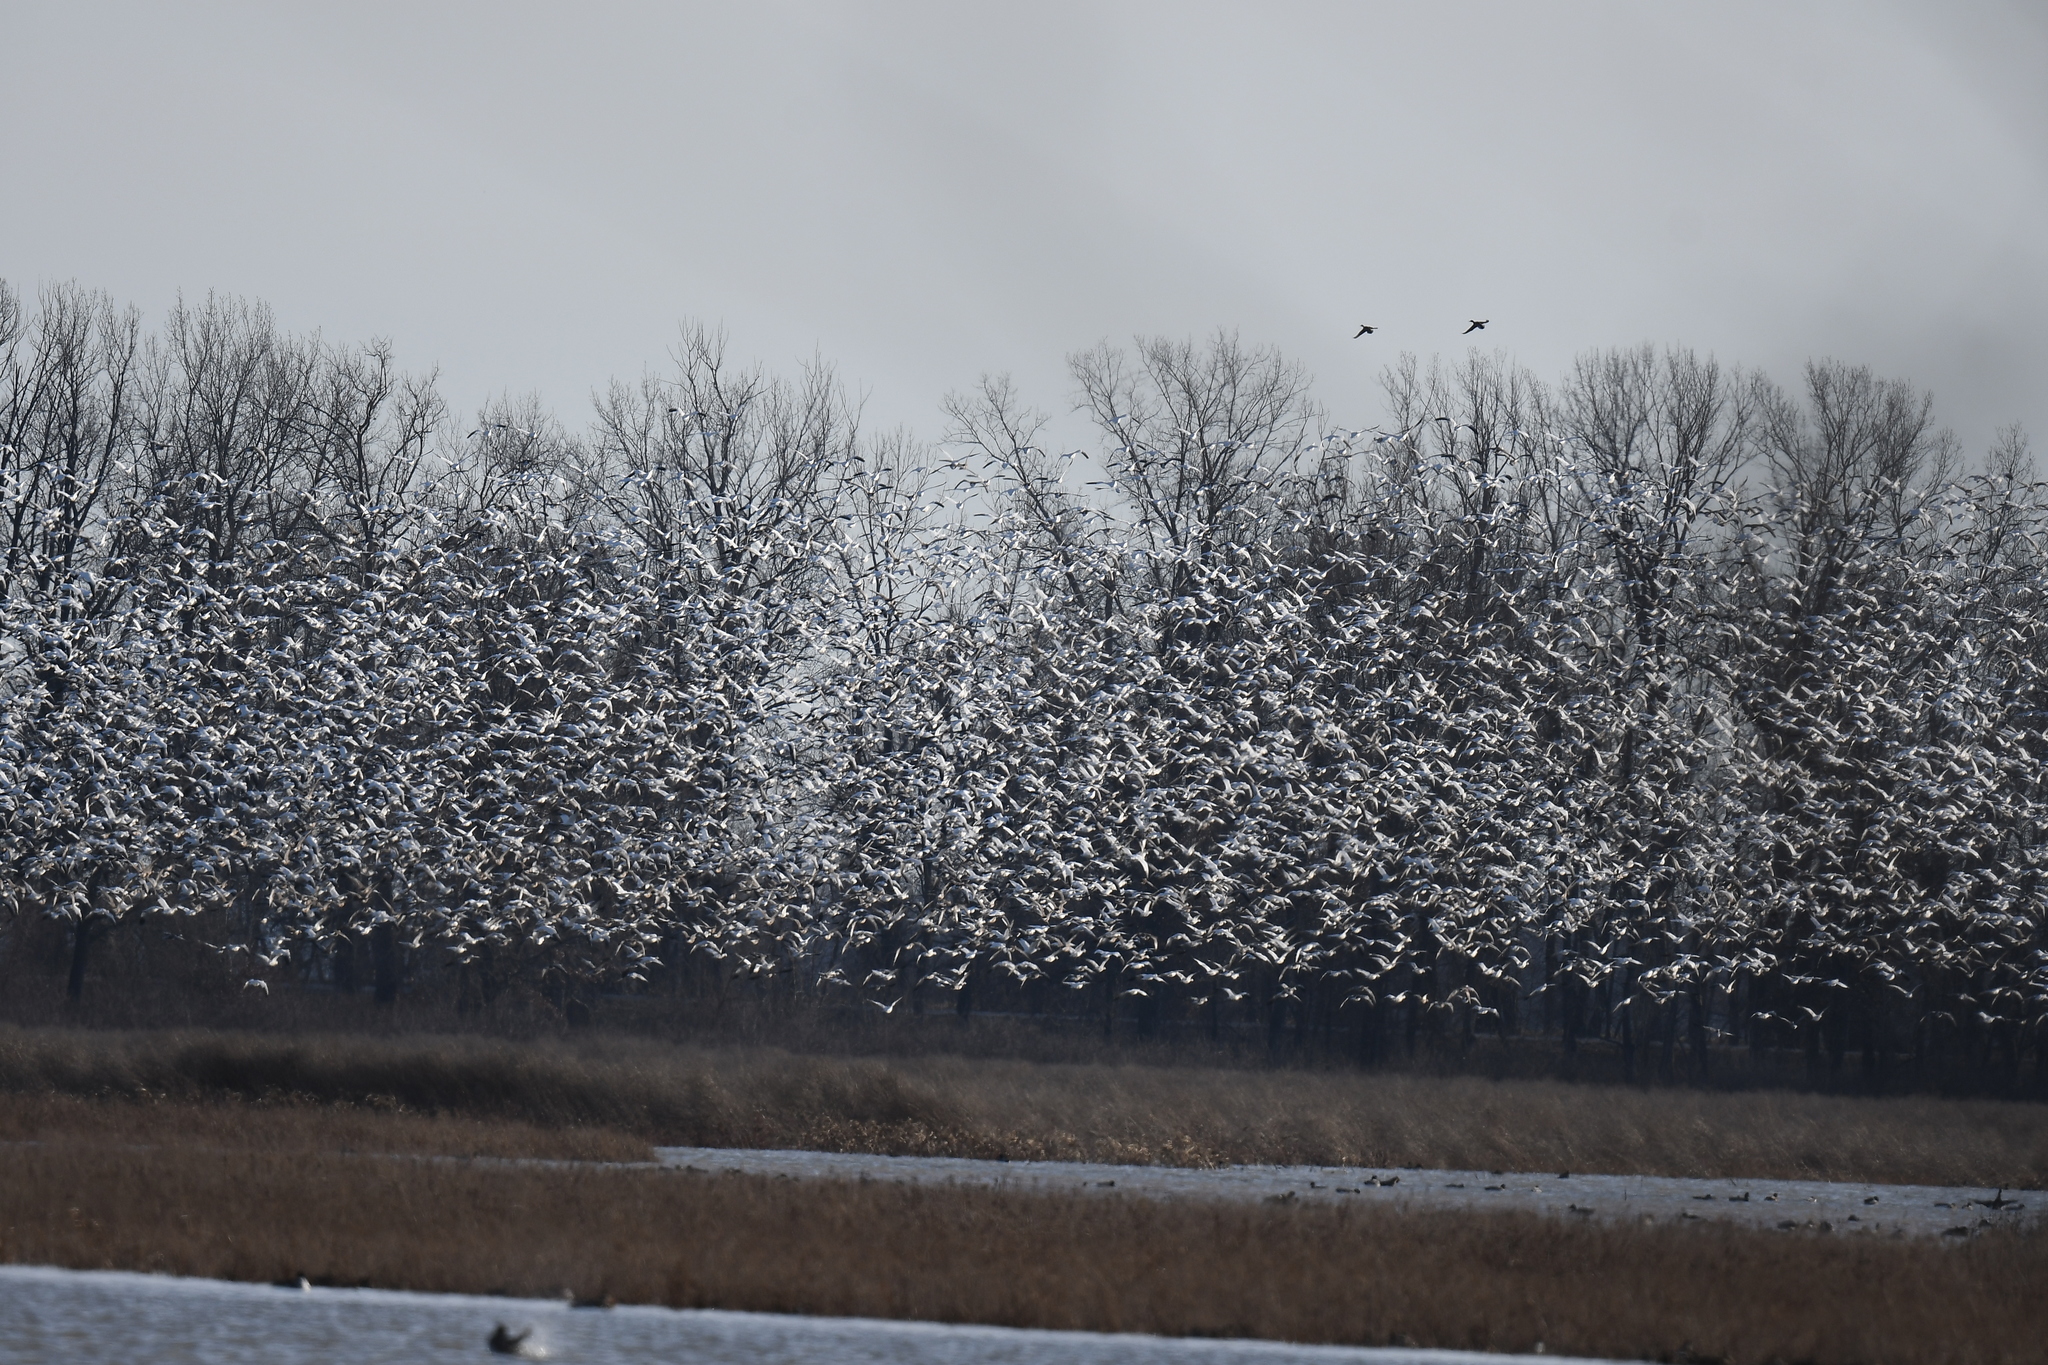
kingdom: Animalia
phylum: Chordata
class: Aves
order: Anseriformes
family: Anatidae
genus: Anser
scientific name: Anser caerulescens
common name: Snow goose
